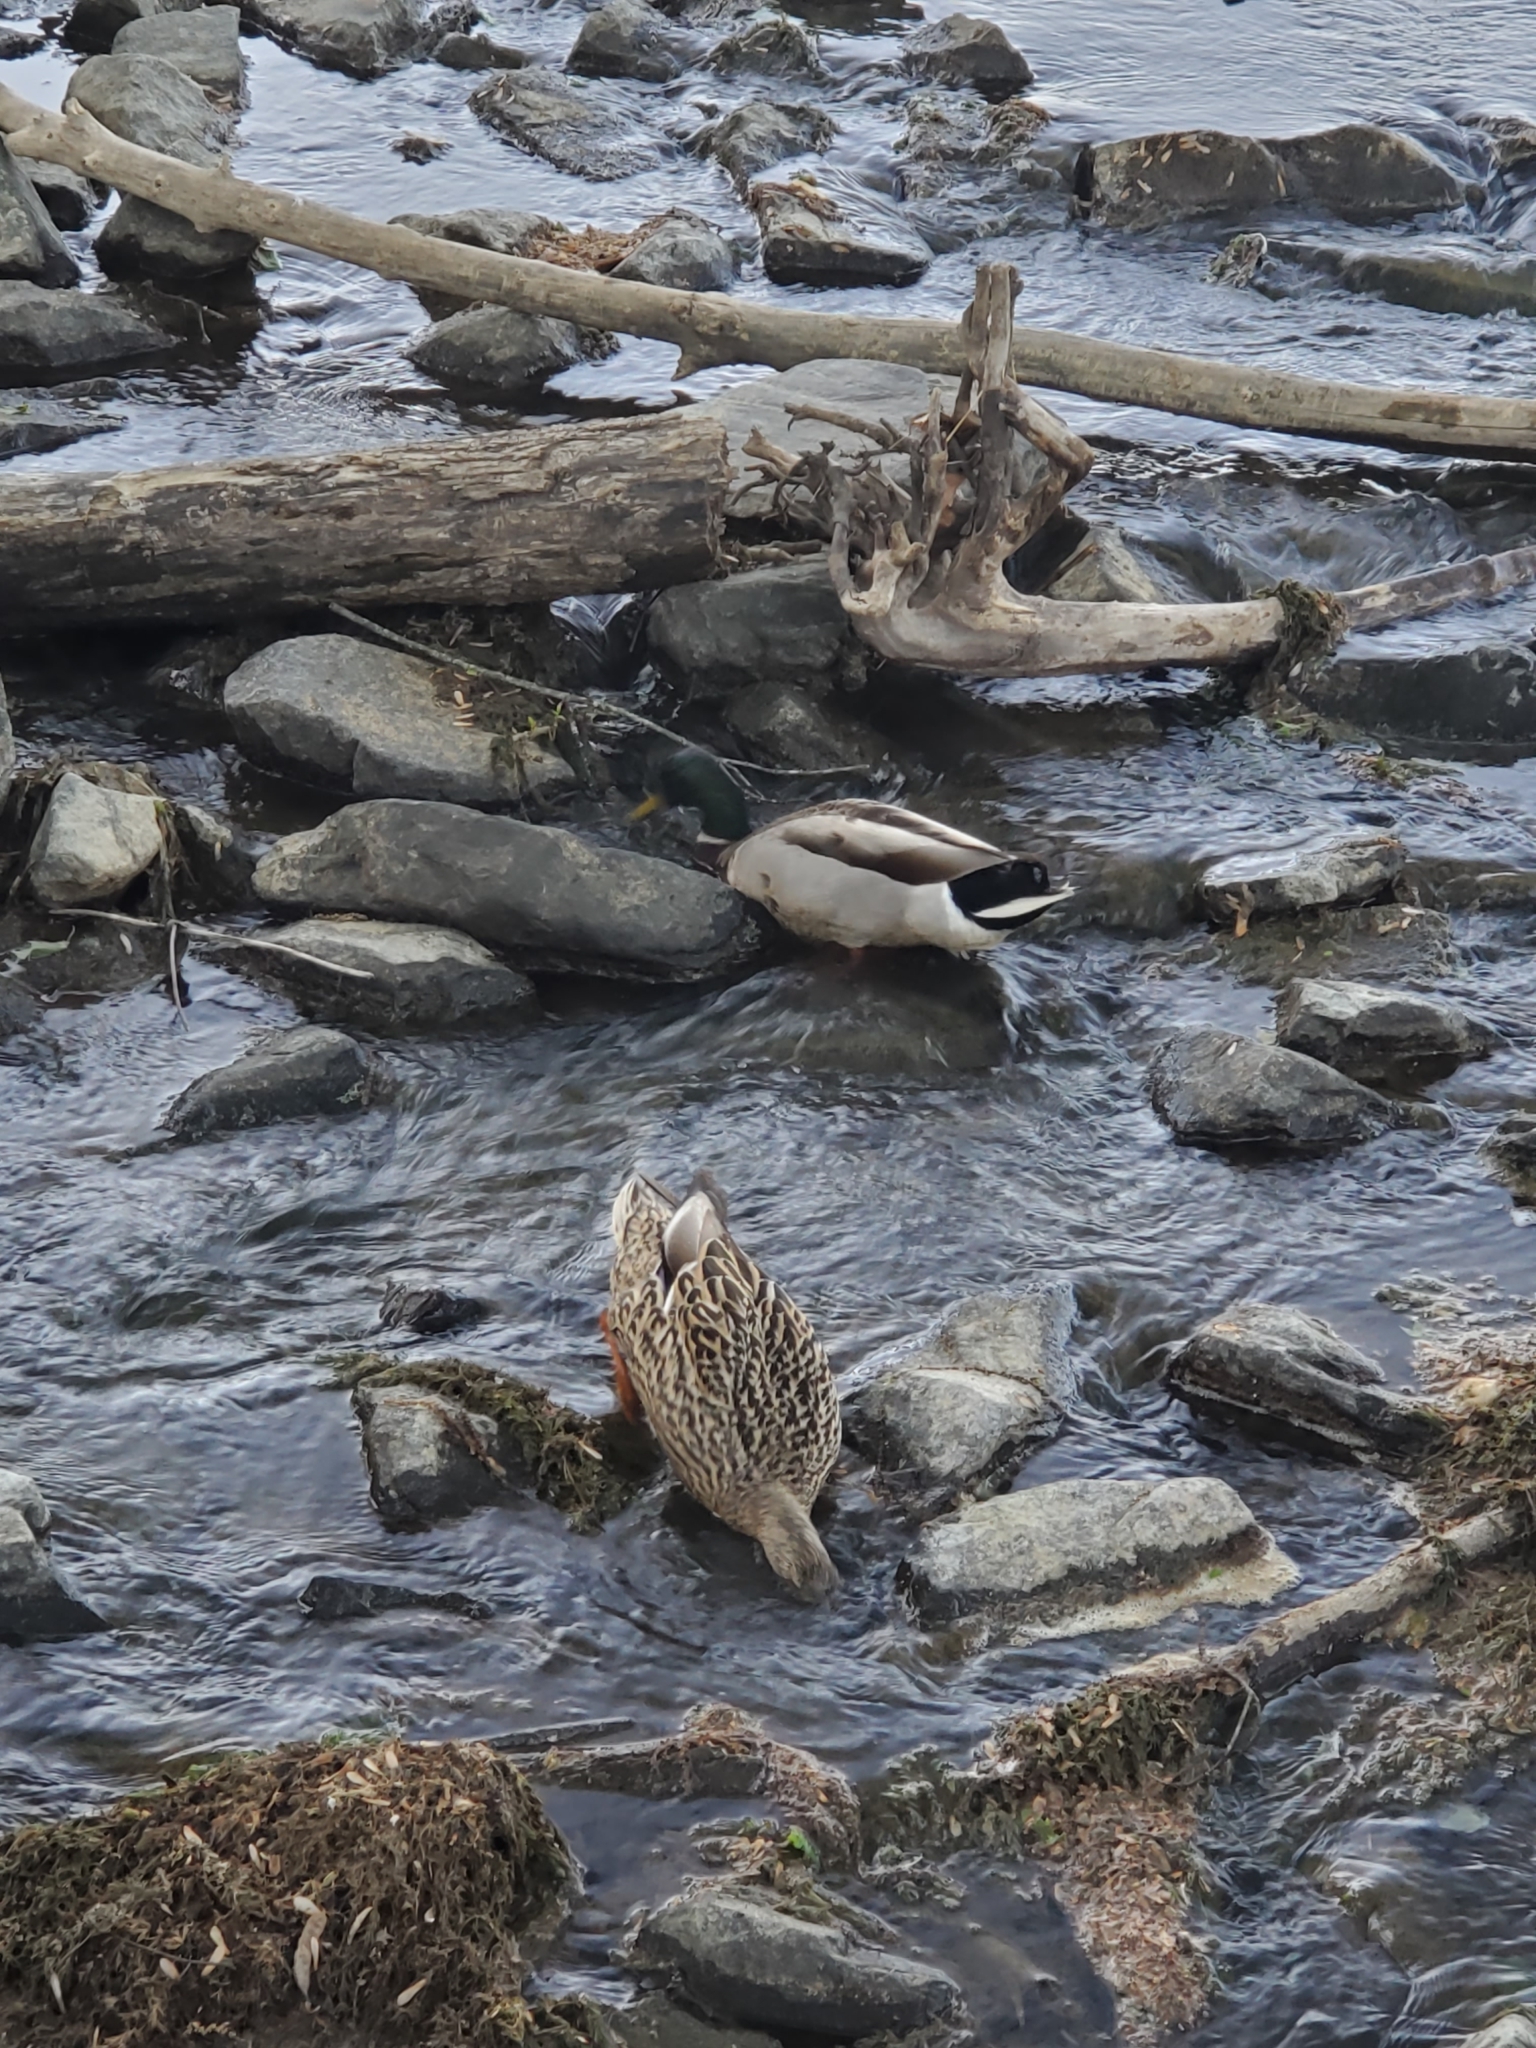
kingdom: Animalia
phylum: Chordata
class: Aves
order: Anseriformes
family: Anatidae
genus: Anas
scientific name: Anas platyrhynchos
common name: Mallard
